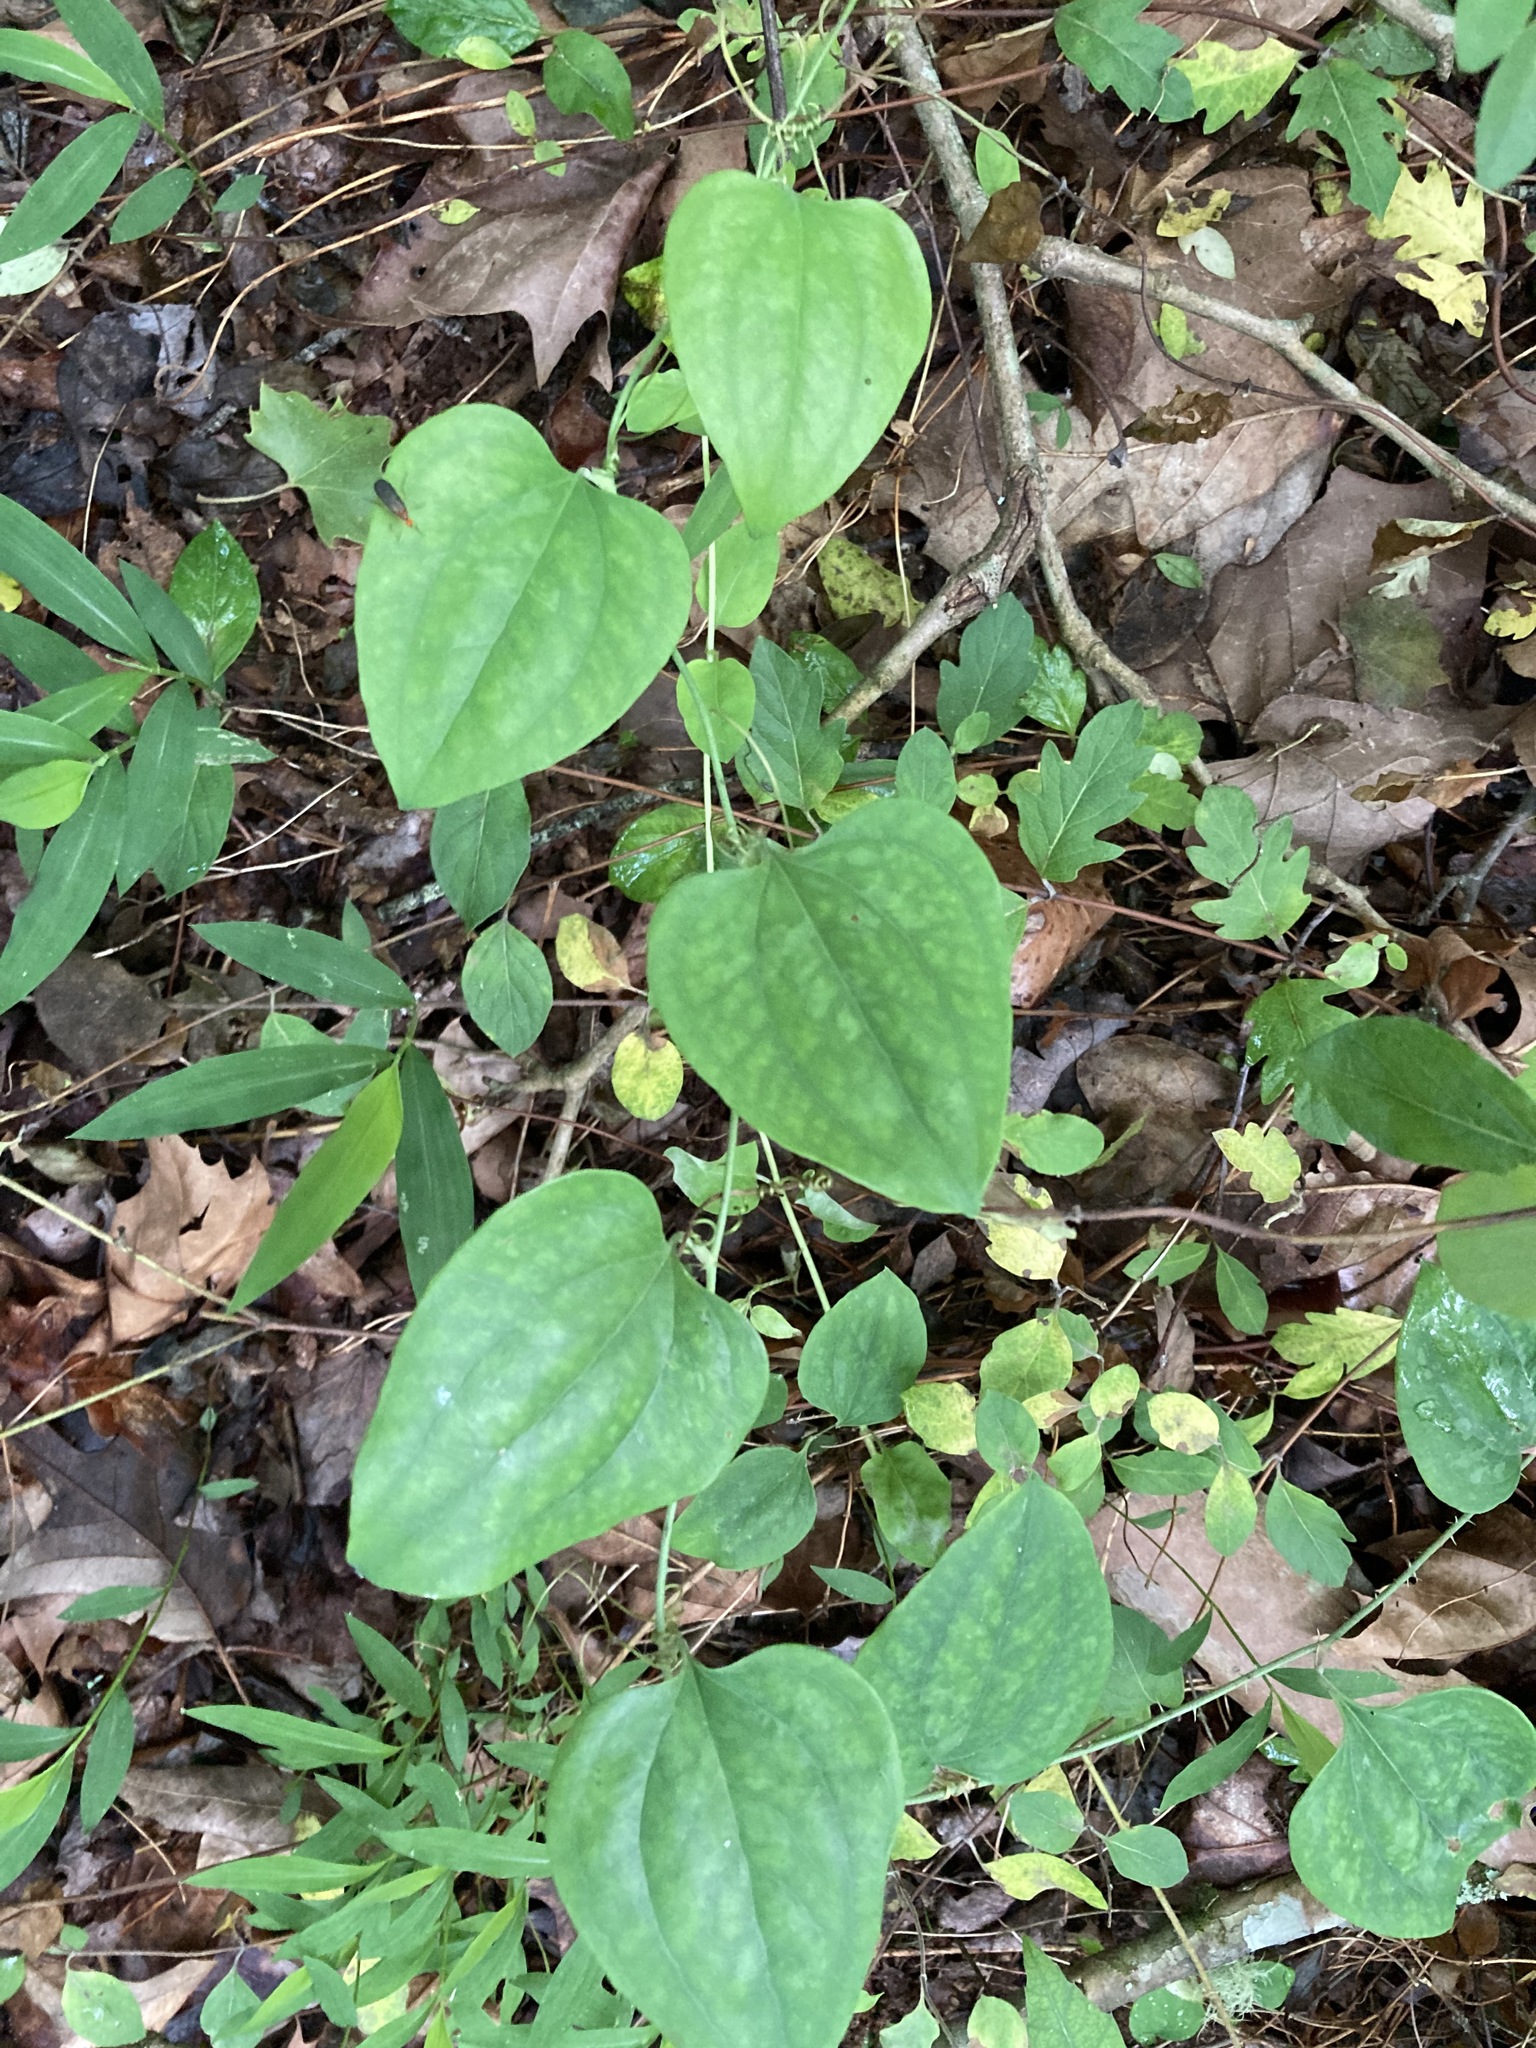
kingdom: Plantae
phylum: Tracheophyta
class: Liliopsida
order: Liliales
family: Smilacaceae
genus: Smilax
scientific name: Smilax glauca
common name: Cat greenbrier
